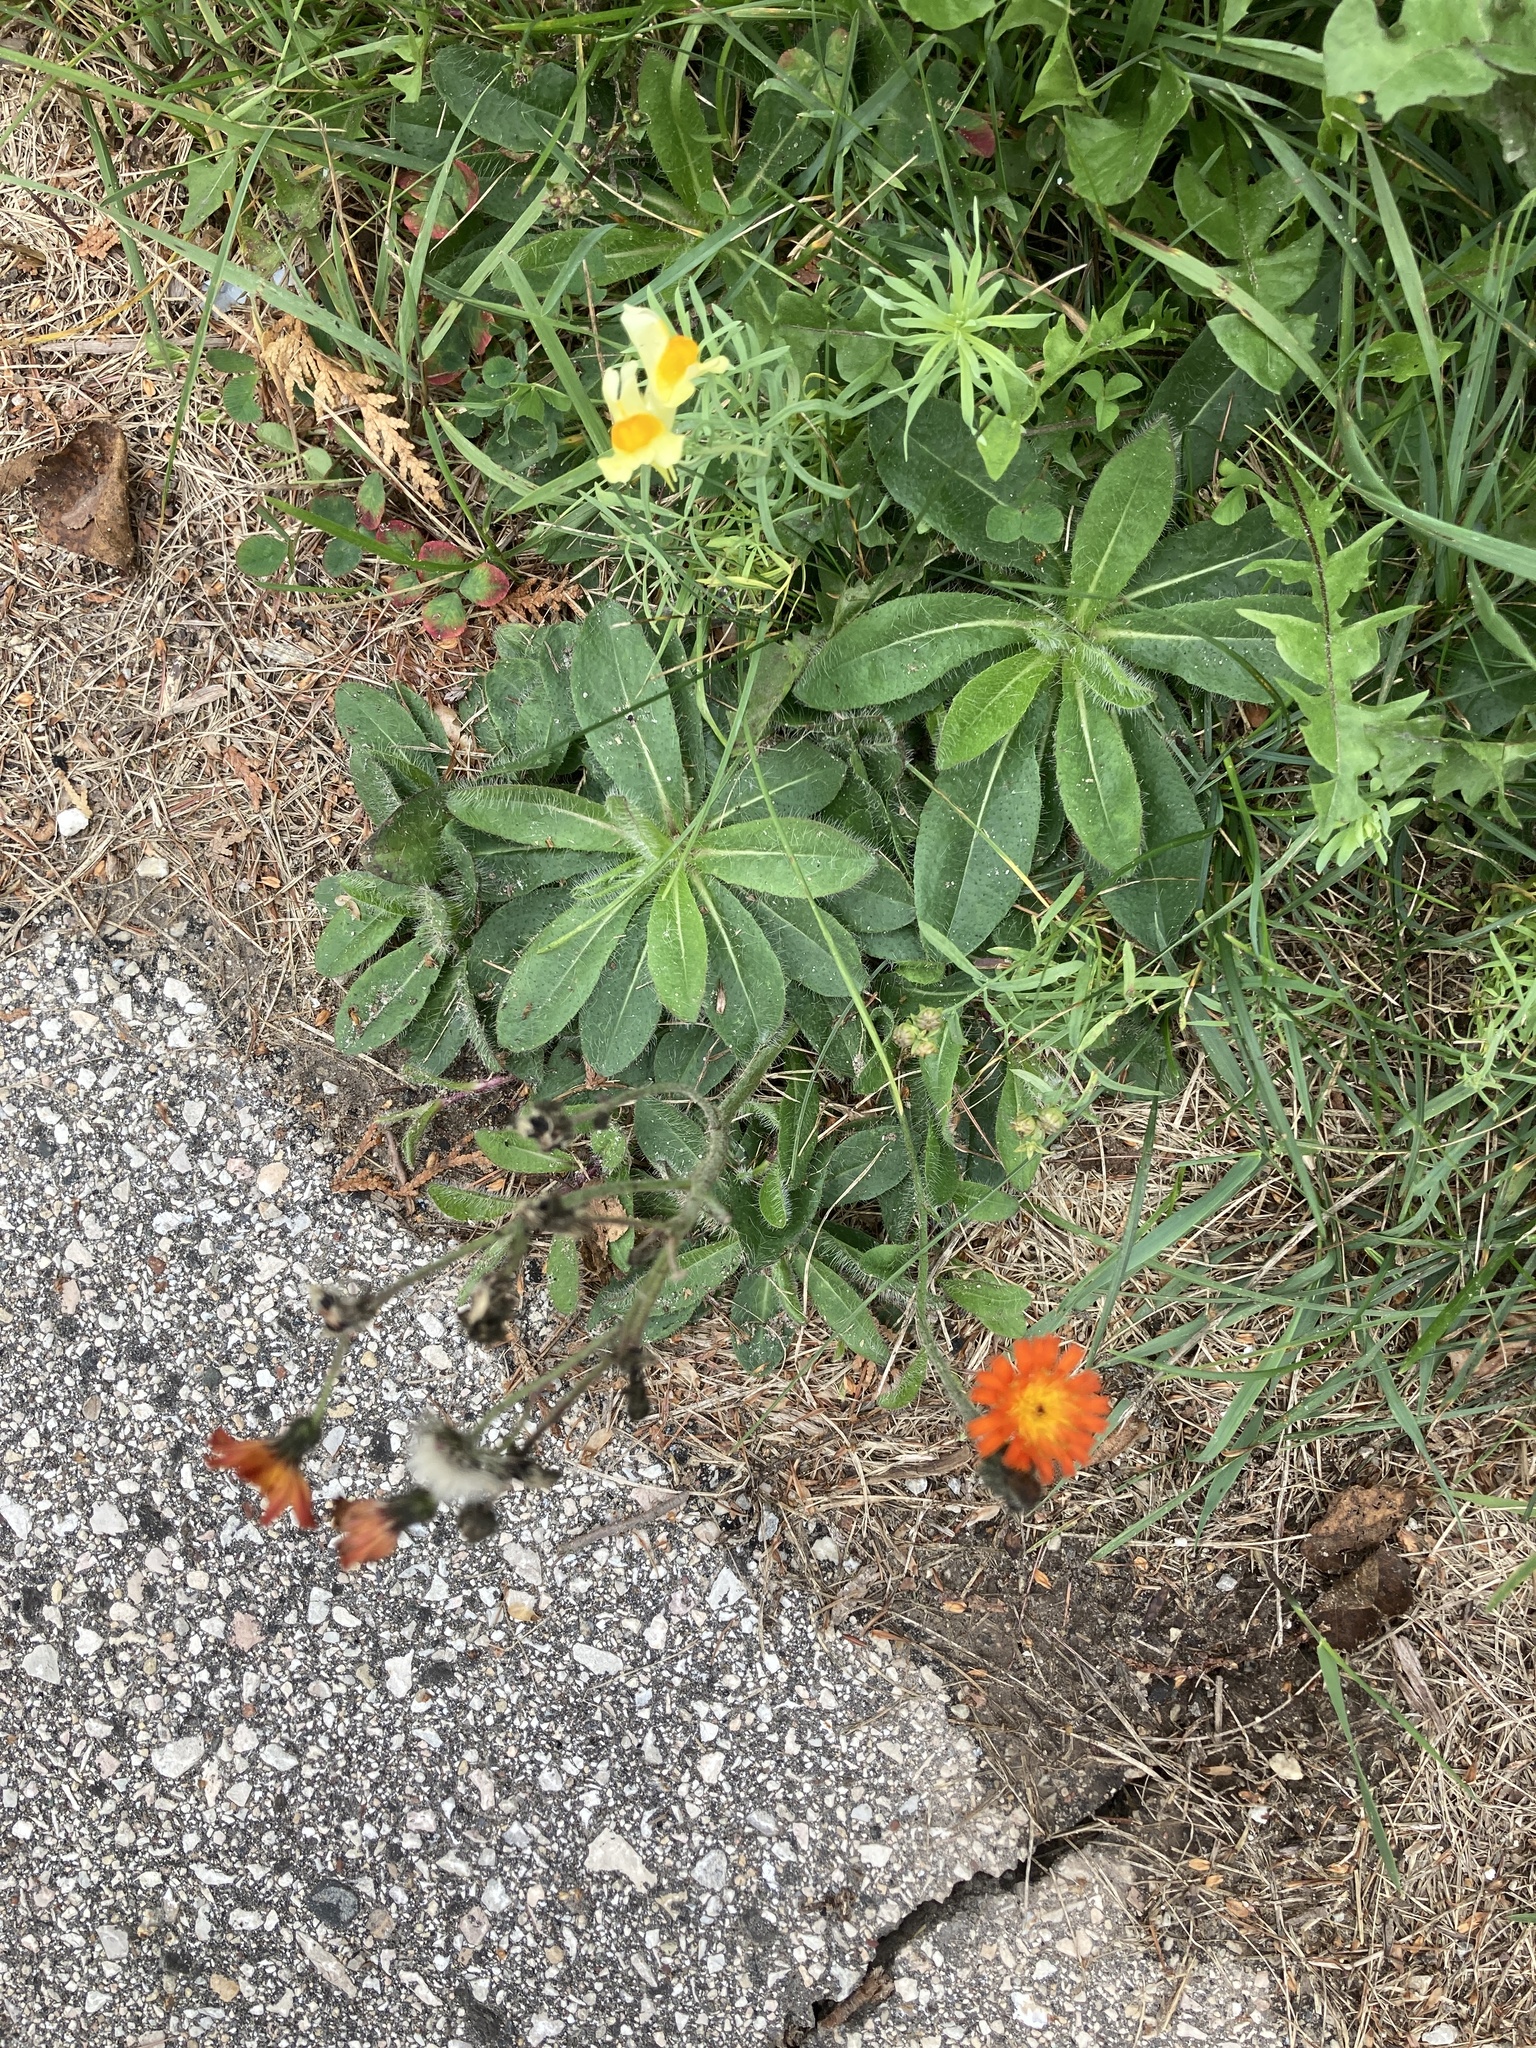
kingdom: Plantae
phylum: Tracheophyta
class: Magnoliopsida
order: Asterales
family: Asteraceae
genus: Pilosella
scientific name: Pilosella aurantiaca
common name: Fox-and-cubs
